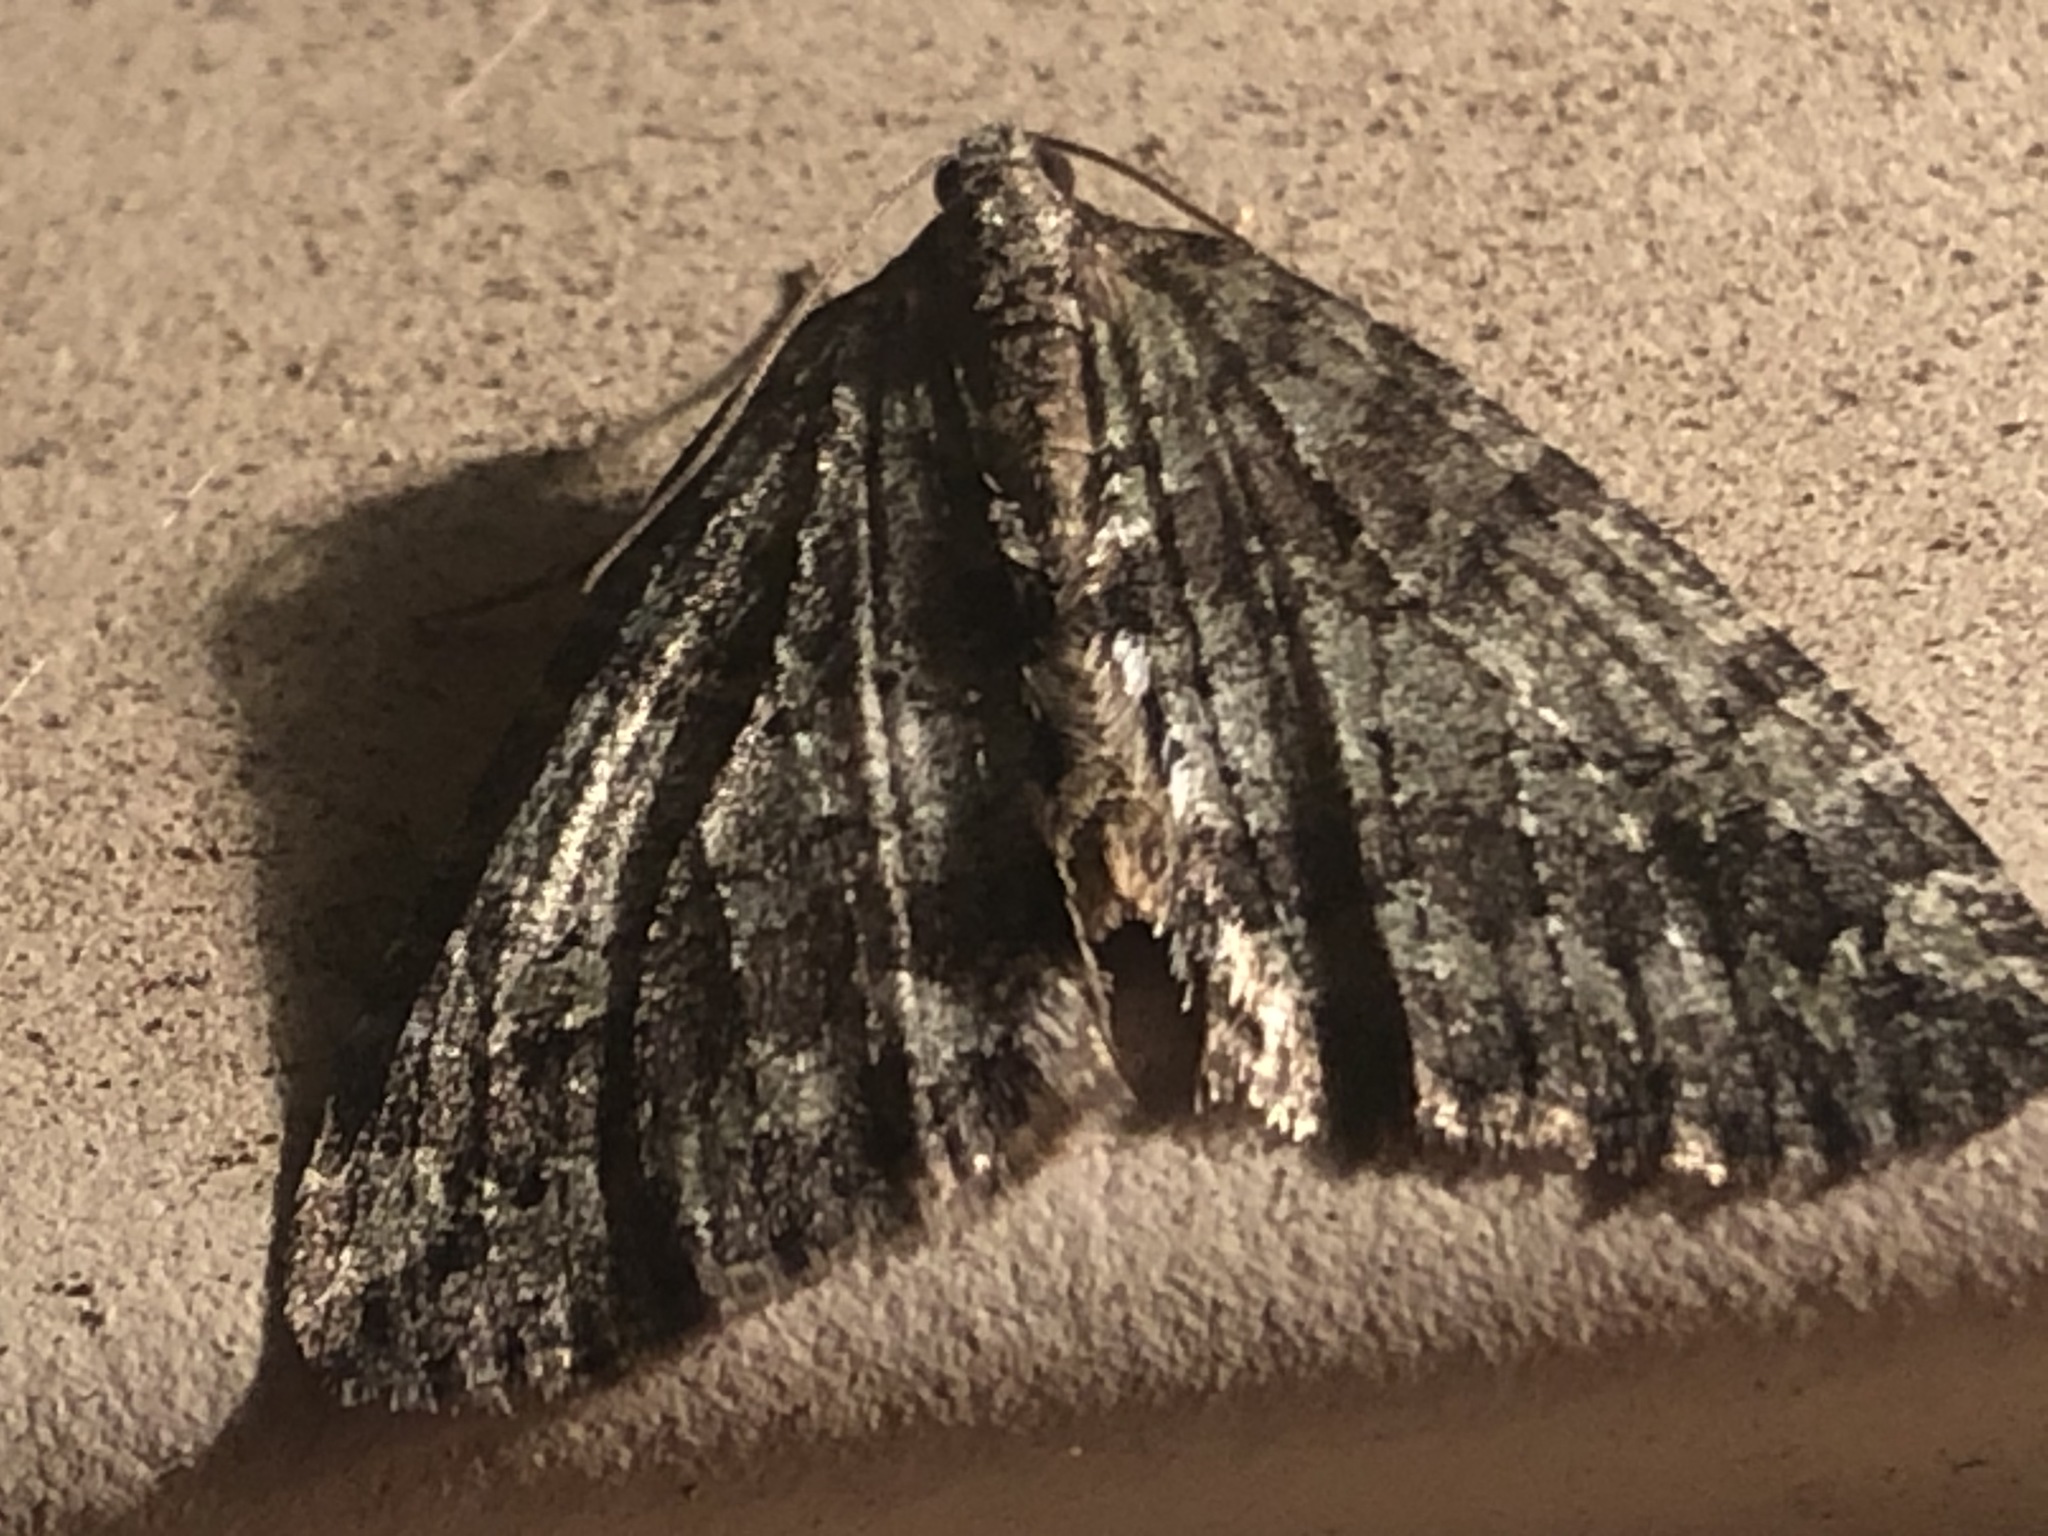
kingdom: Animalia
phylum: Arthropoda
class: Insecta
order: Lepidoptera
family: Geometridae
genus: Hydriomena
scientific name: Hydriomena nubilofasciata
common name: Oak winter highflier moth
